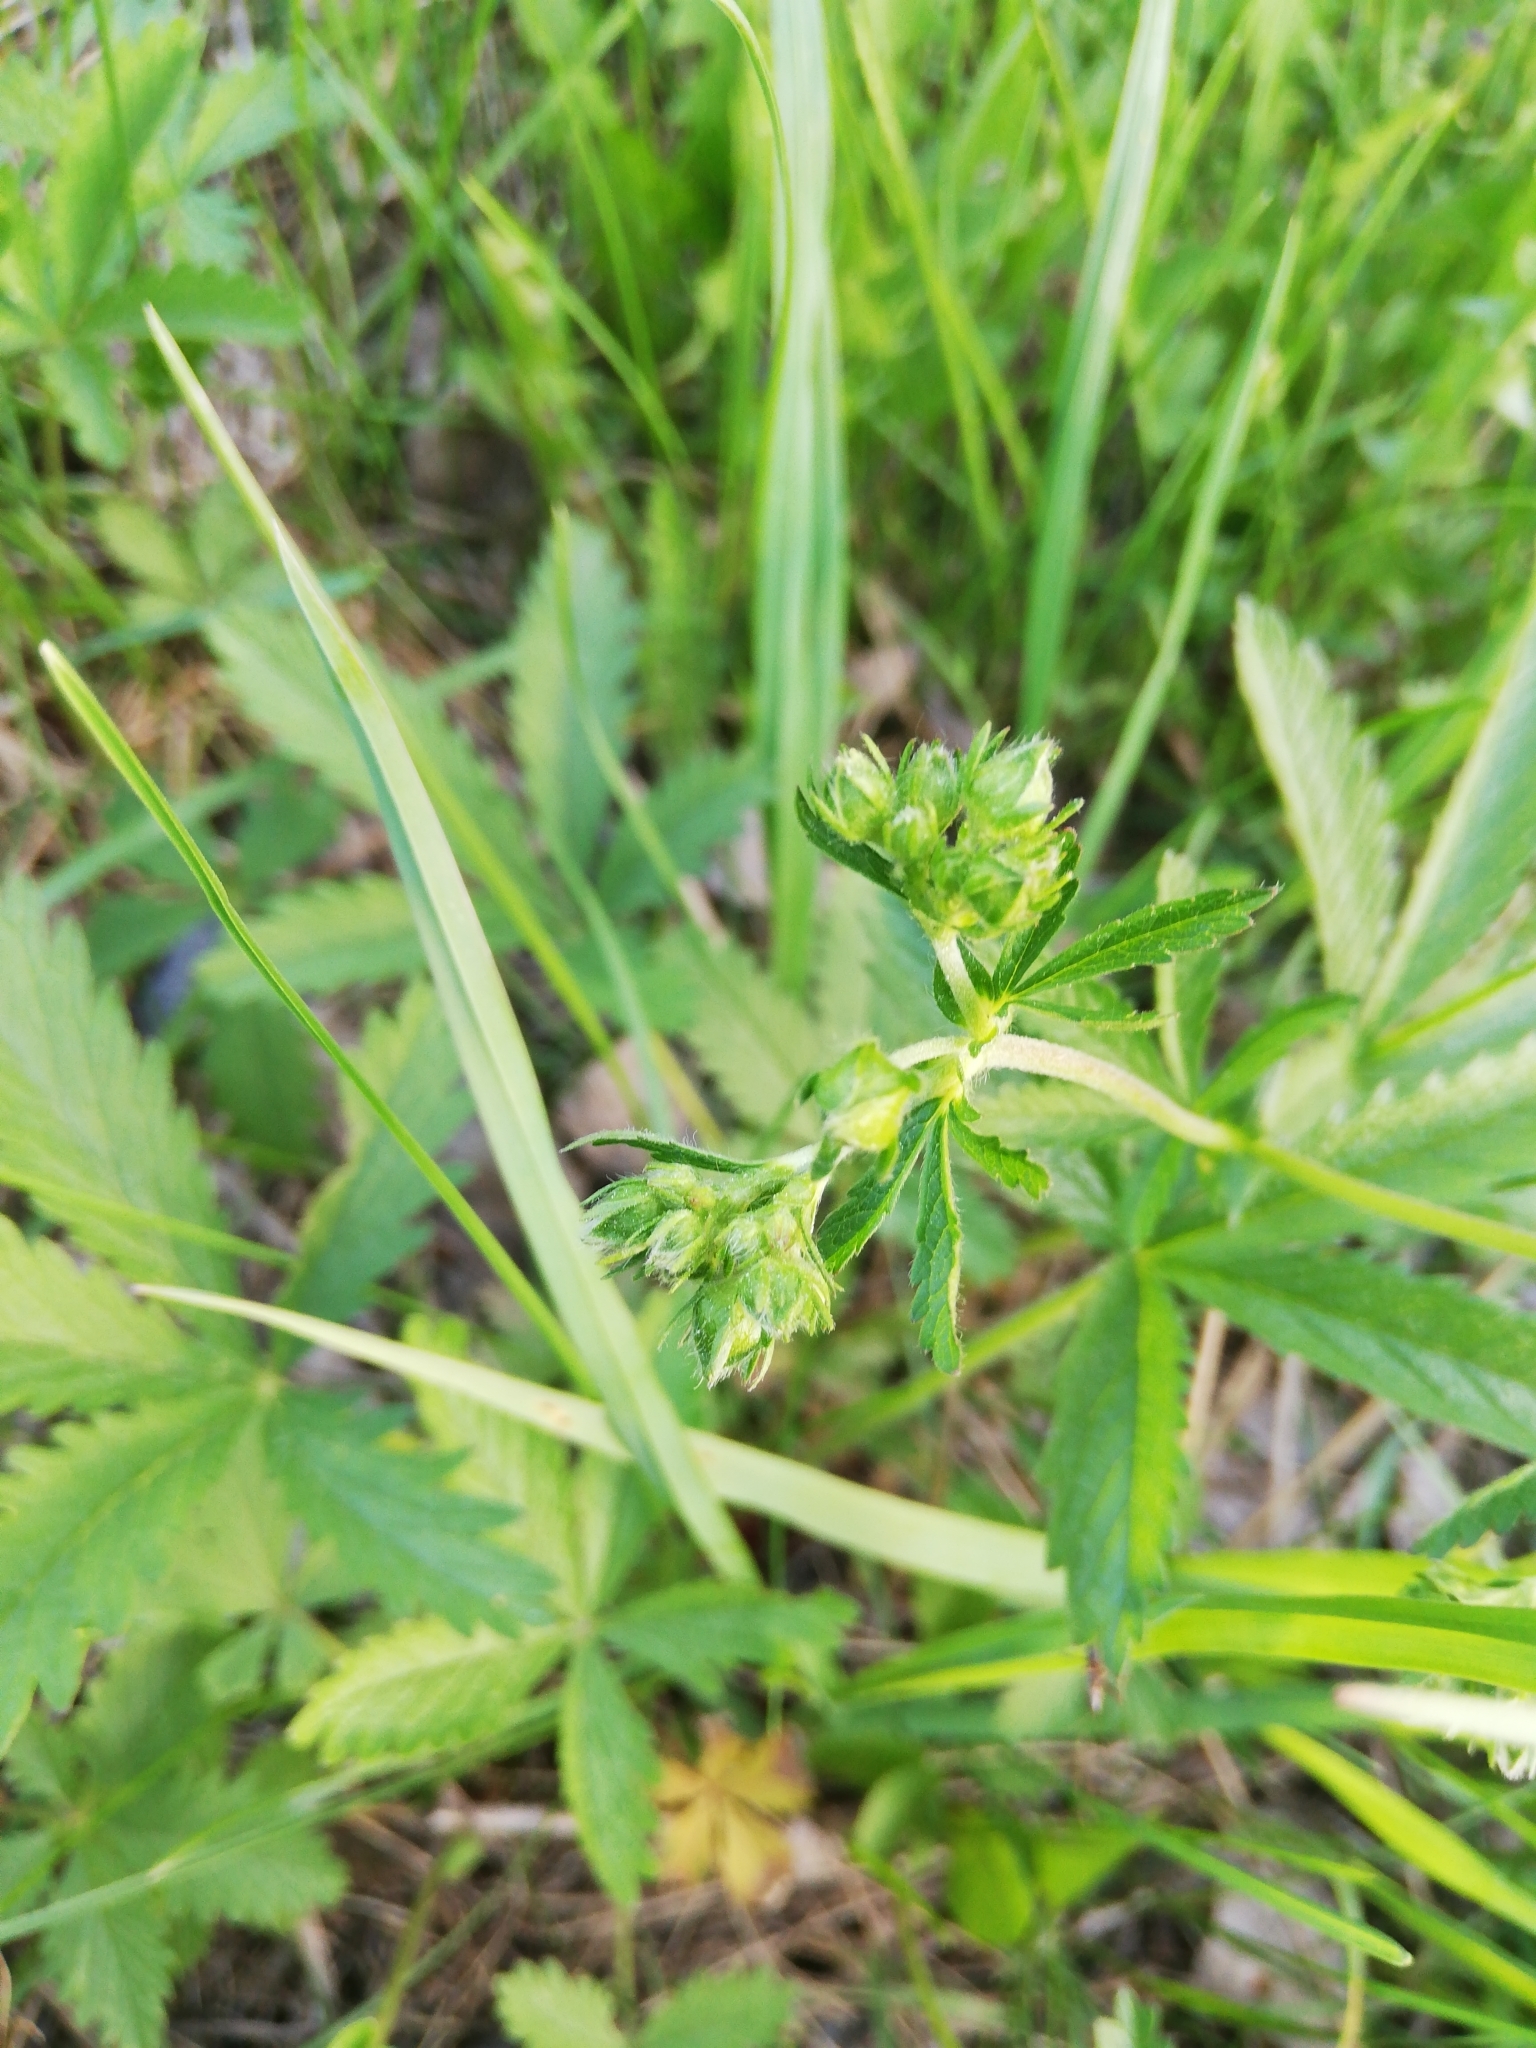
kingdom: Plantae
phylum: Tracheophyta
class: Magnoliopsida
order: Rosales
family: Rosaceae
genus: Potentilla
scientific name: Potentilla chrysantha
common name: Thuringian cinquefoil
